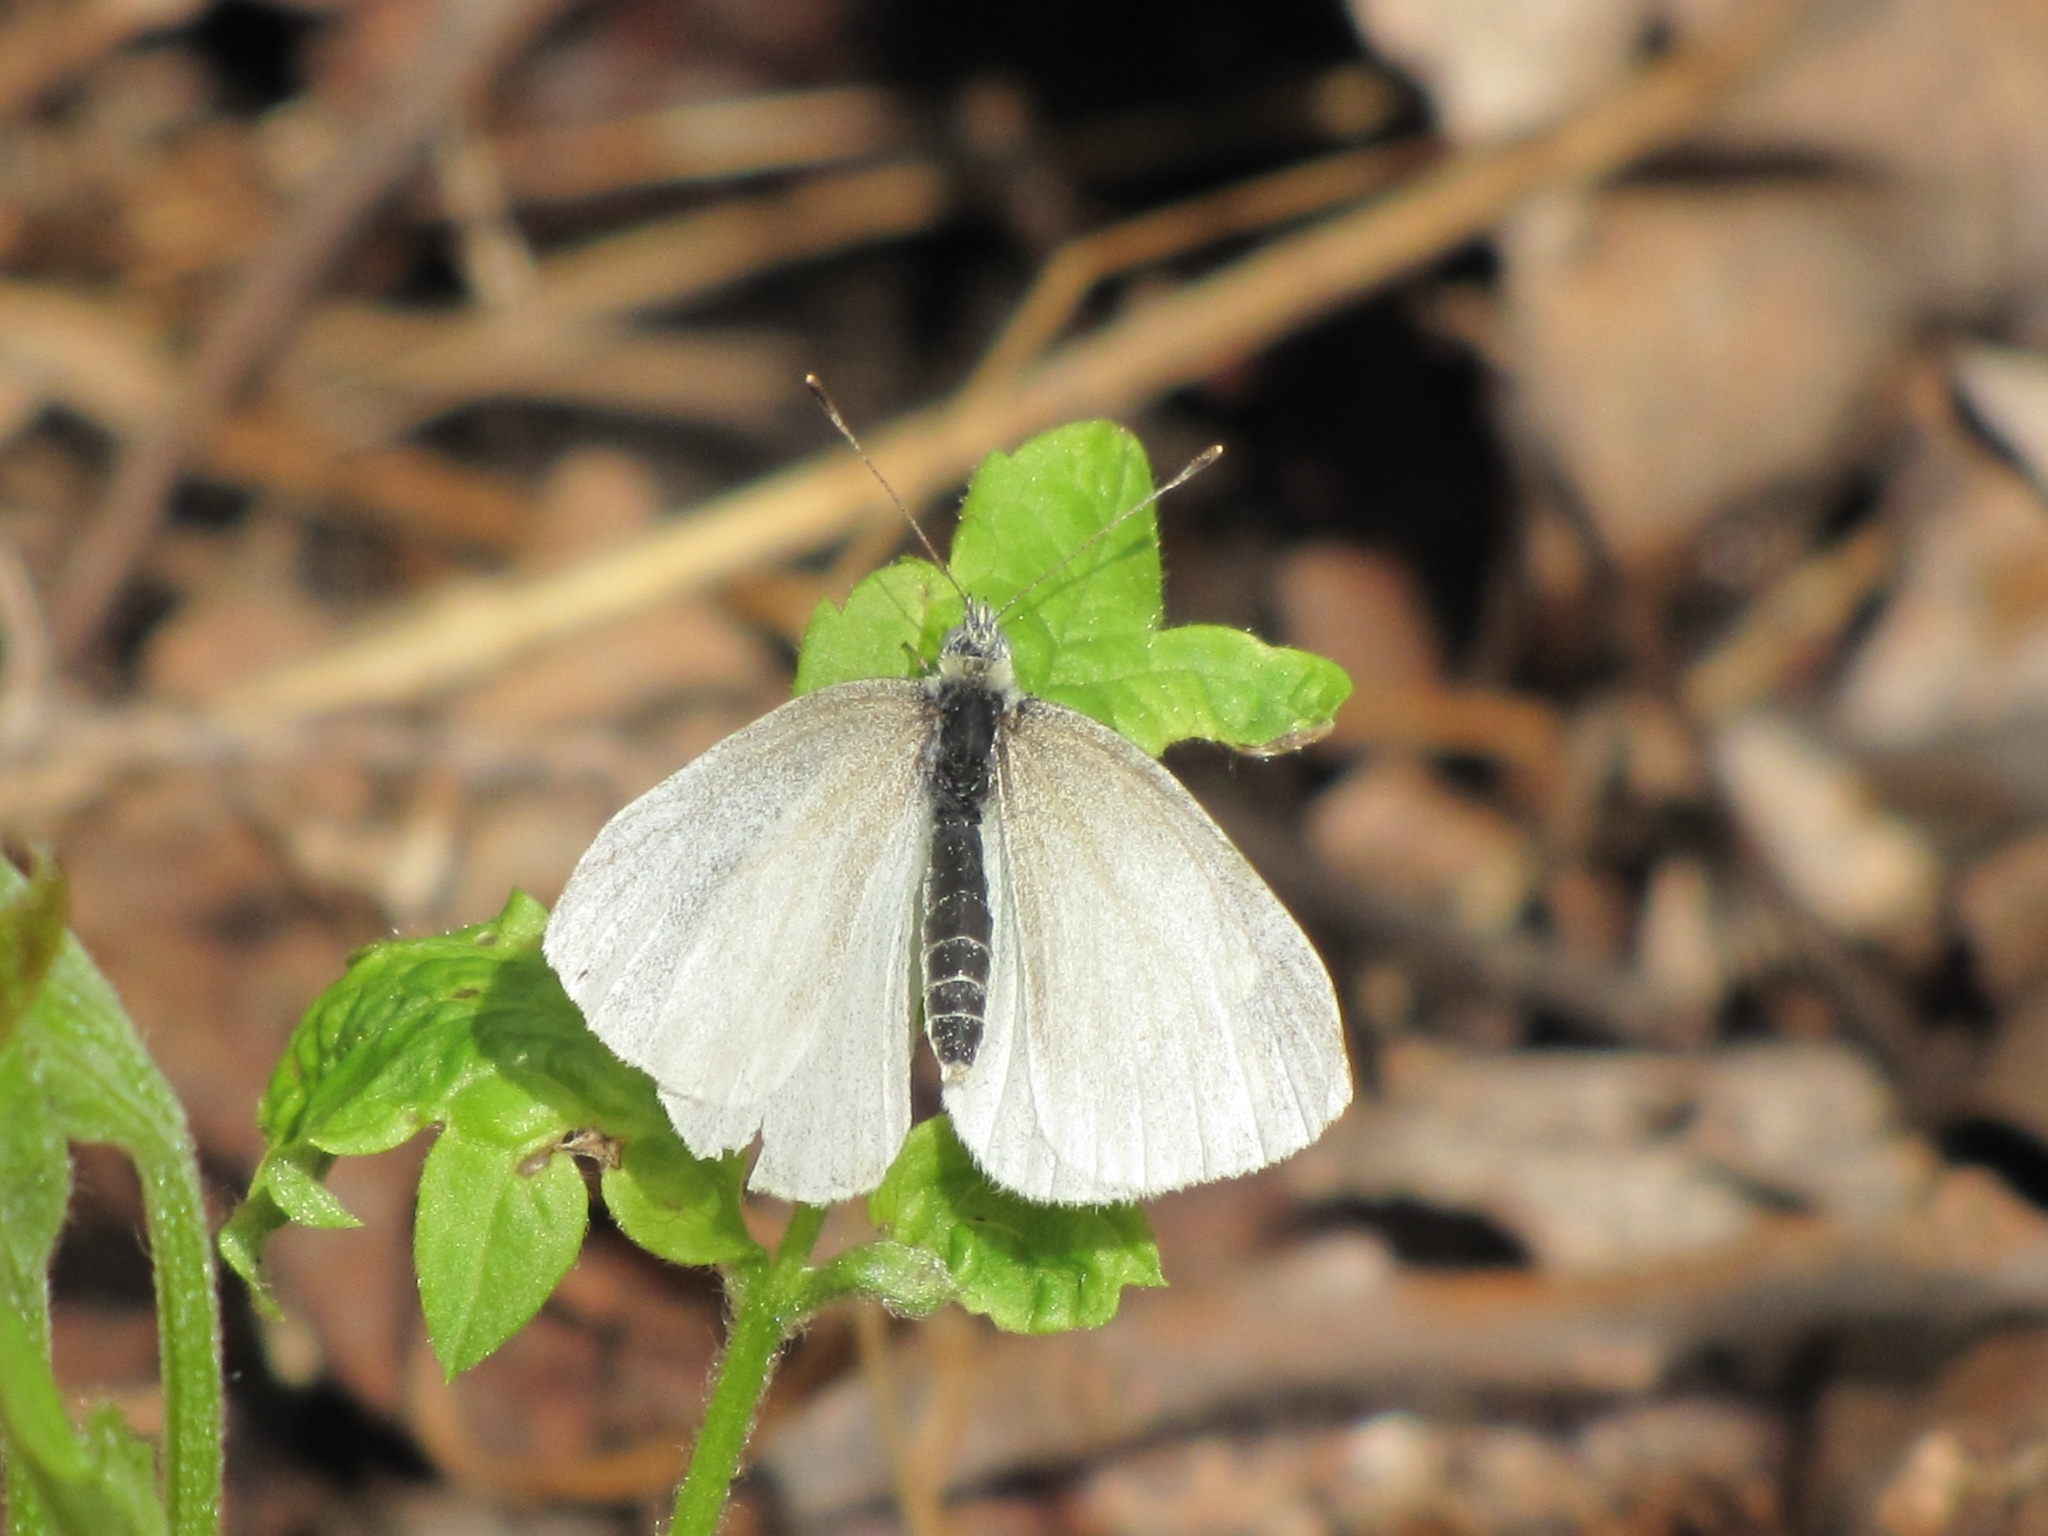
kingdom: Animalia
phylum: Arthropoda
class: Insecta
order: Lepidoptera
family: Pieridae
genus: Pieris
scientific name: Pieris virginiensis
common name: West virginia white
